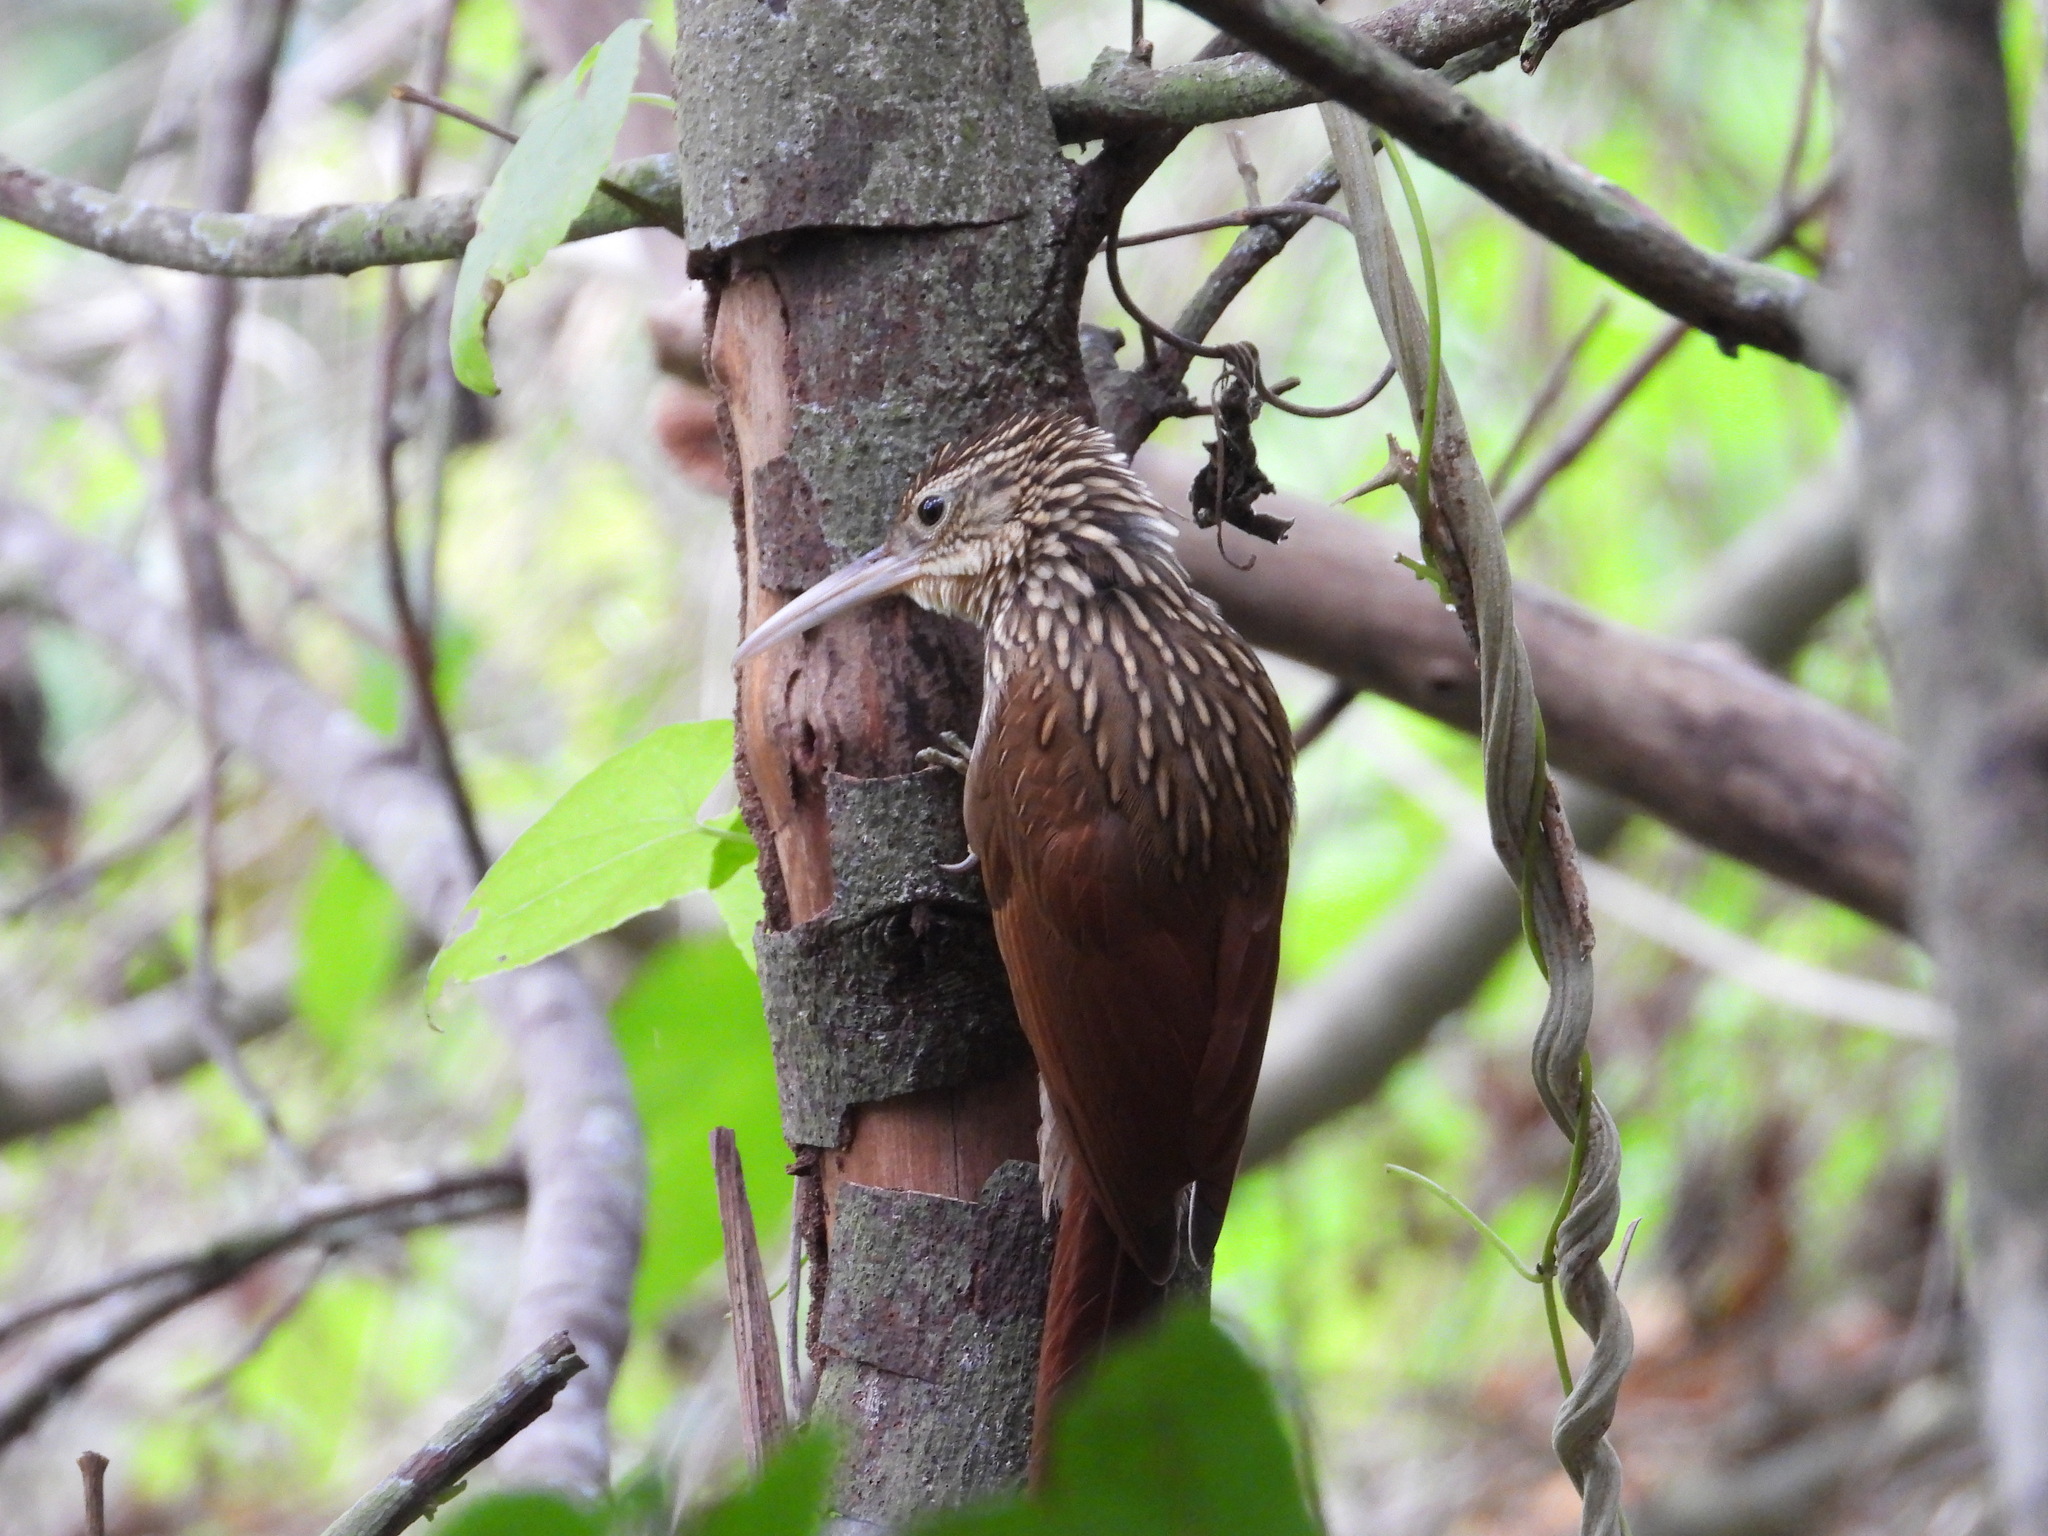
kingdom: Animalia
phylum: Chordata
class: Aves
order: Passeriformes
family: Furnariidae
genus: Xiphorhynchus
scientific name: Xiphorhynchus flavigaster
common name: Ivory-billed woodcreeper
